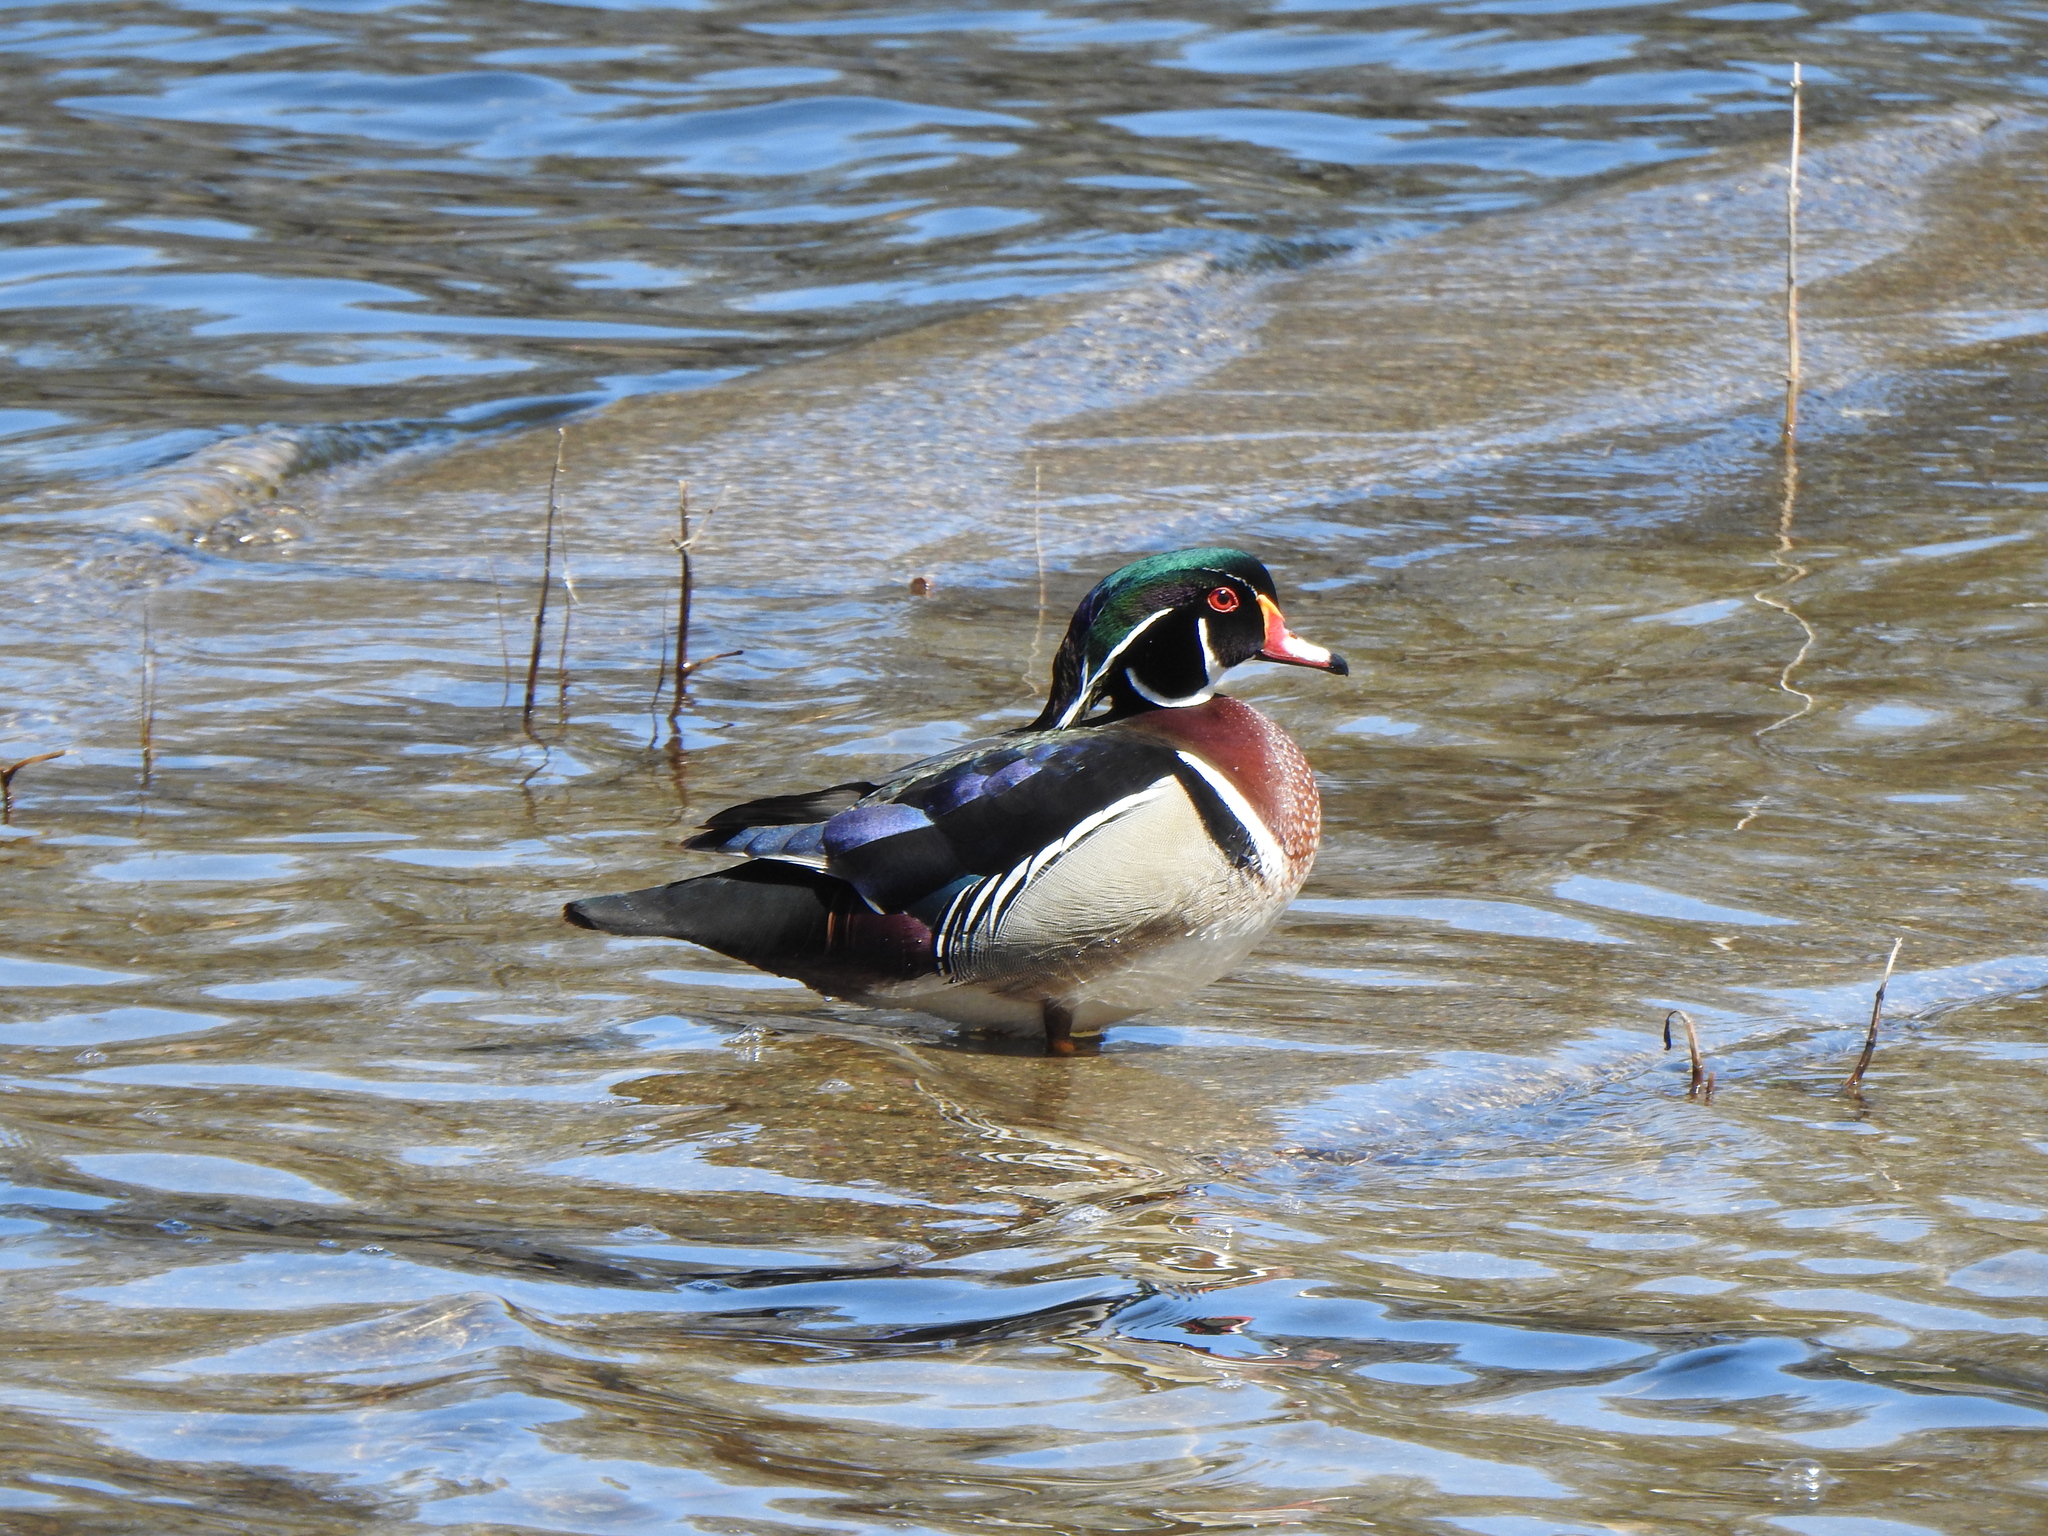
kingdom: Animalia
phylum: Chordata
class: Aves
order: Anseriformes
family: Anatidae
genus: Aix
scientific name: Aix sponsa
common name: Wood duck
